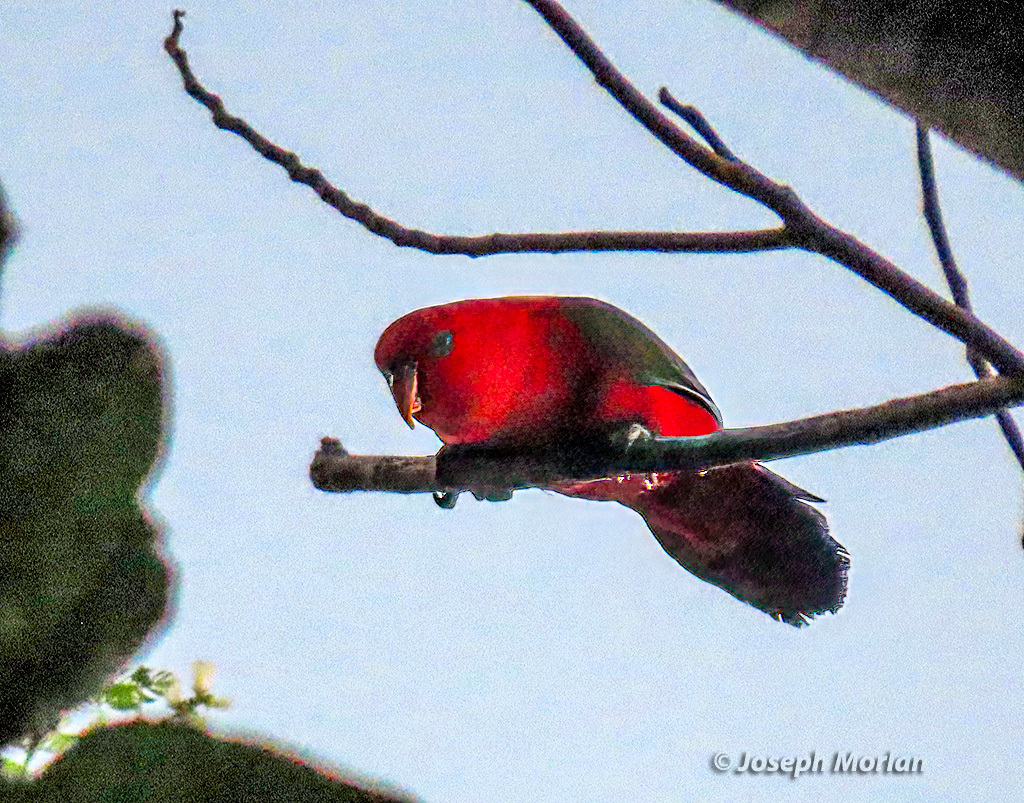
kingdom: Animalia
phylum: Chordata
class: Aves
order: Psittaciformes
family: Psittacidae
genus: Lorius
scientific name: Lorius garrulus
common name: Chattering lory
